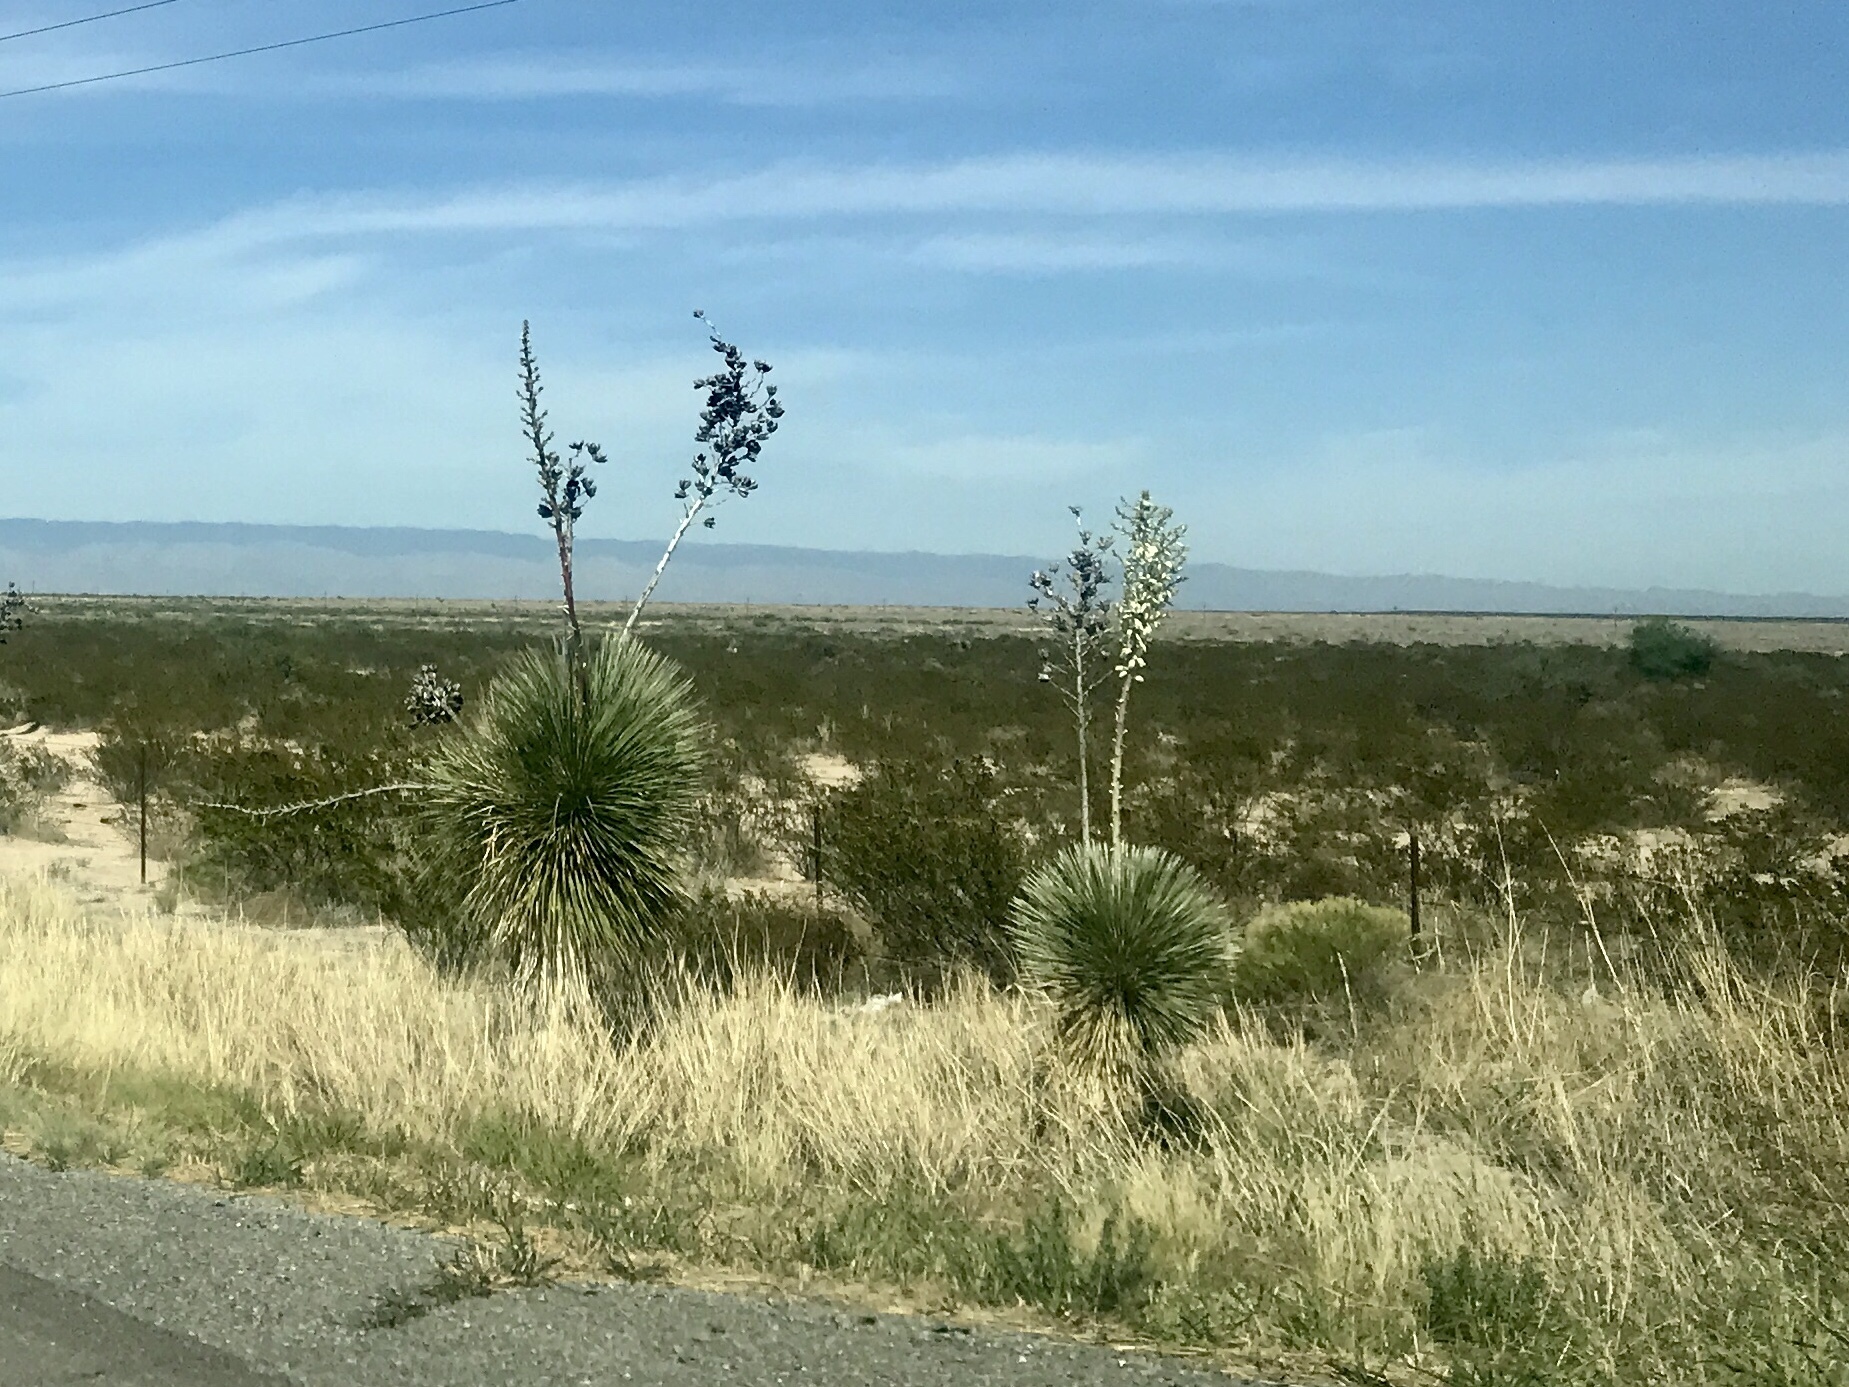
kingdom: Plantae
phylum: Tracheophyta
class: Liliopsida
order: Asparagales
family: Asparagaceae
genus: Yucca
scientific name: Yucca elata
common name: Palmella
